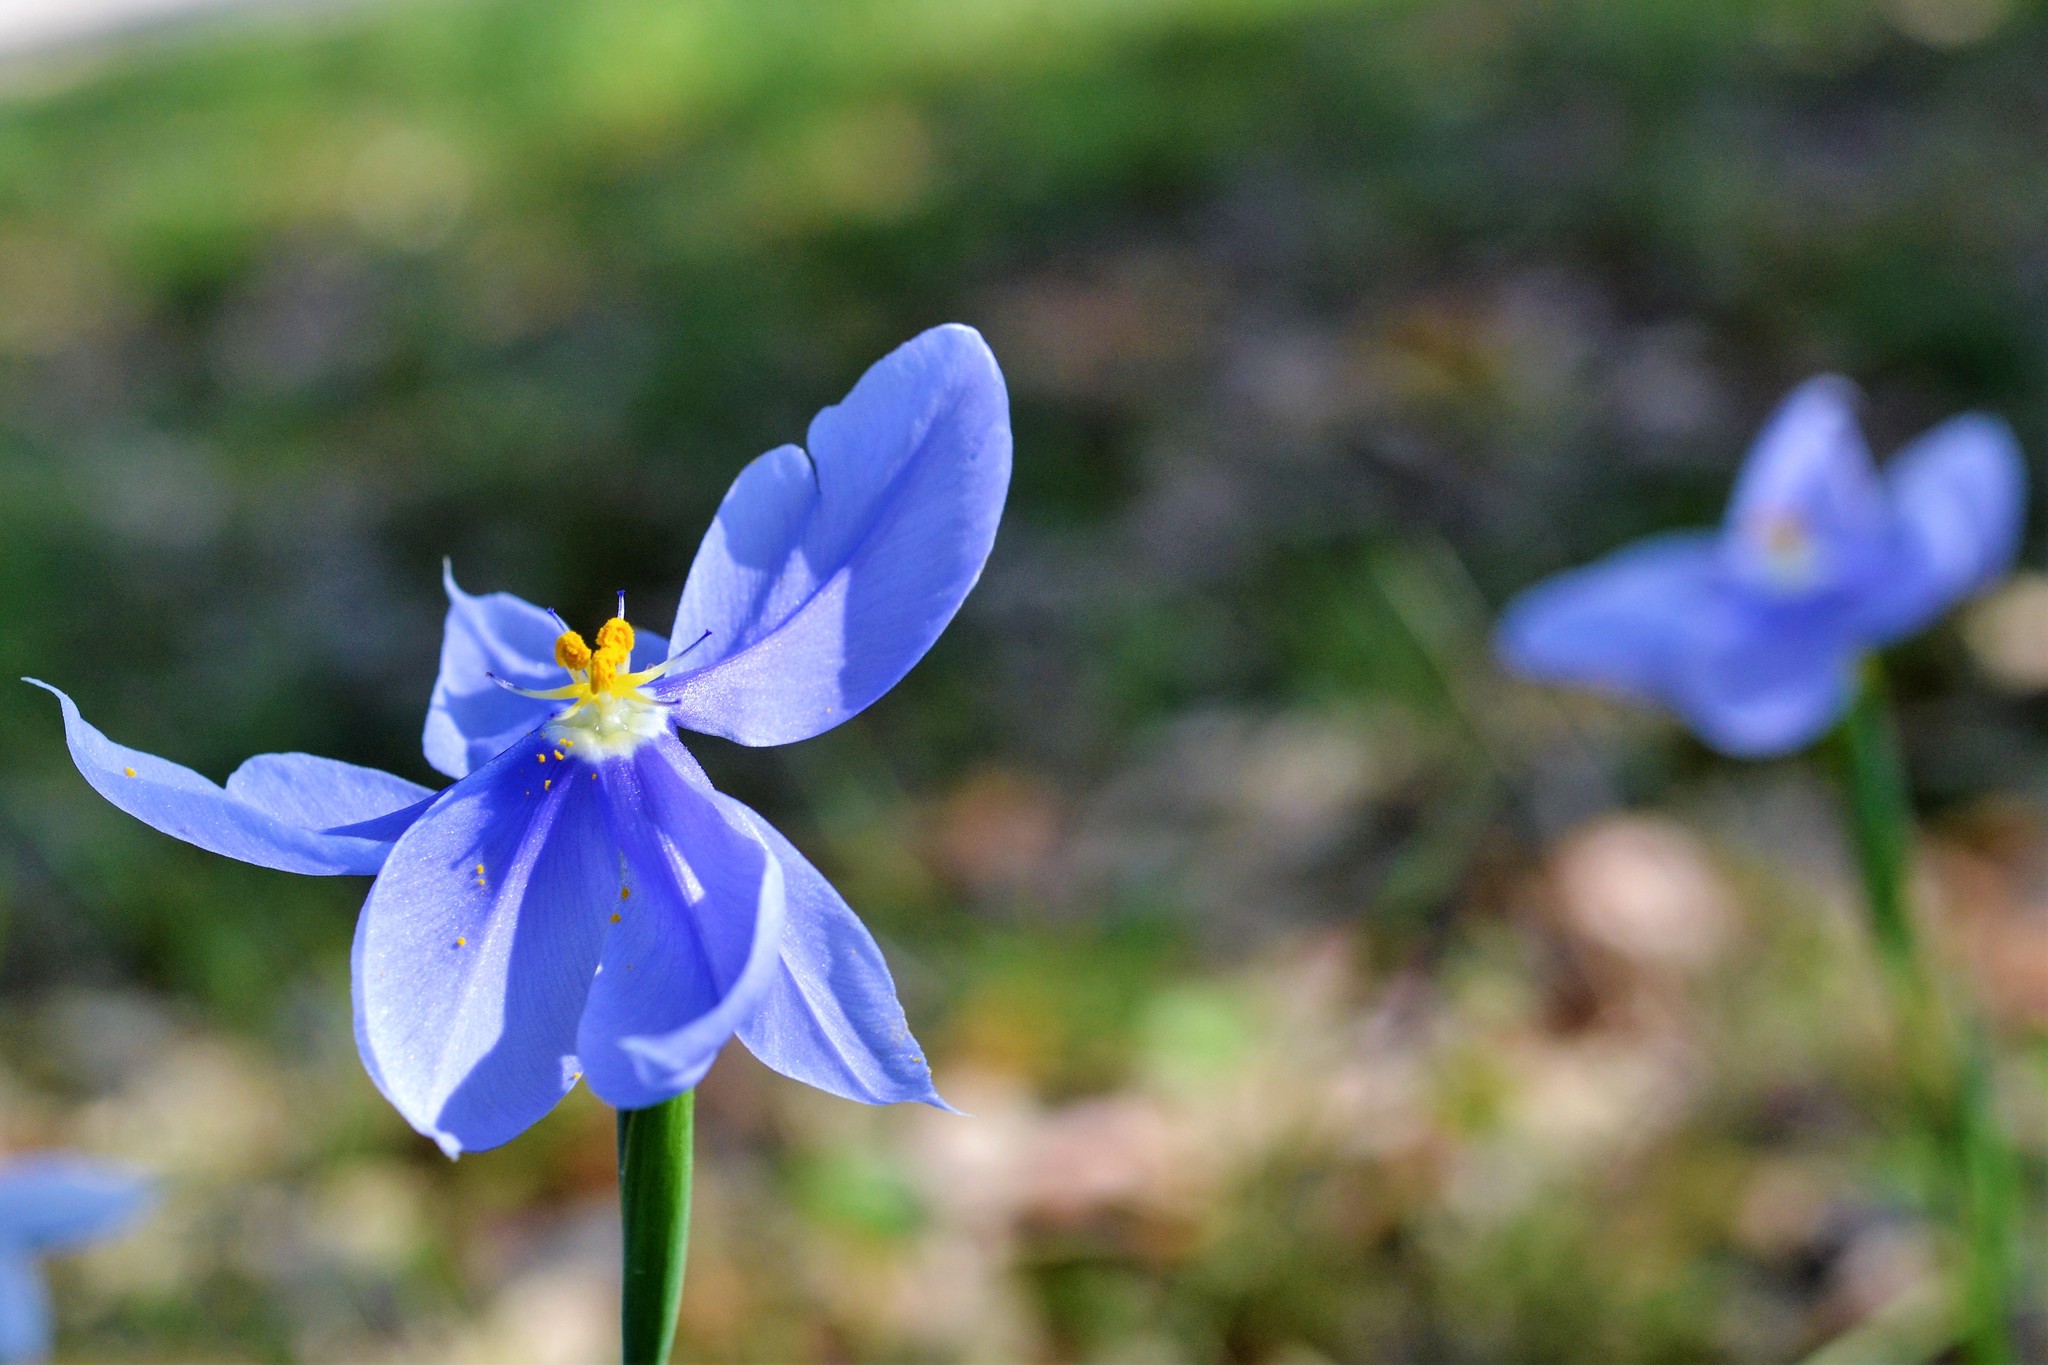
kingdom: Plantae
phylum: Tracheophyta
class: Liliopsida
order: Asparagales
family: Iridaceae
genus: Nemastylis
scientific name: Nemastylis geminiflora
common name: Prairie celestial
